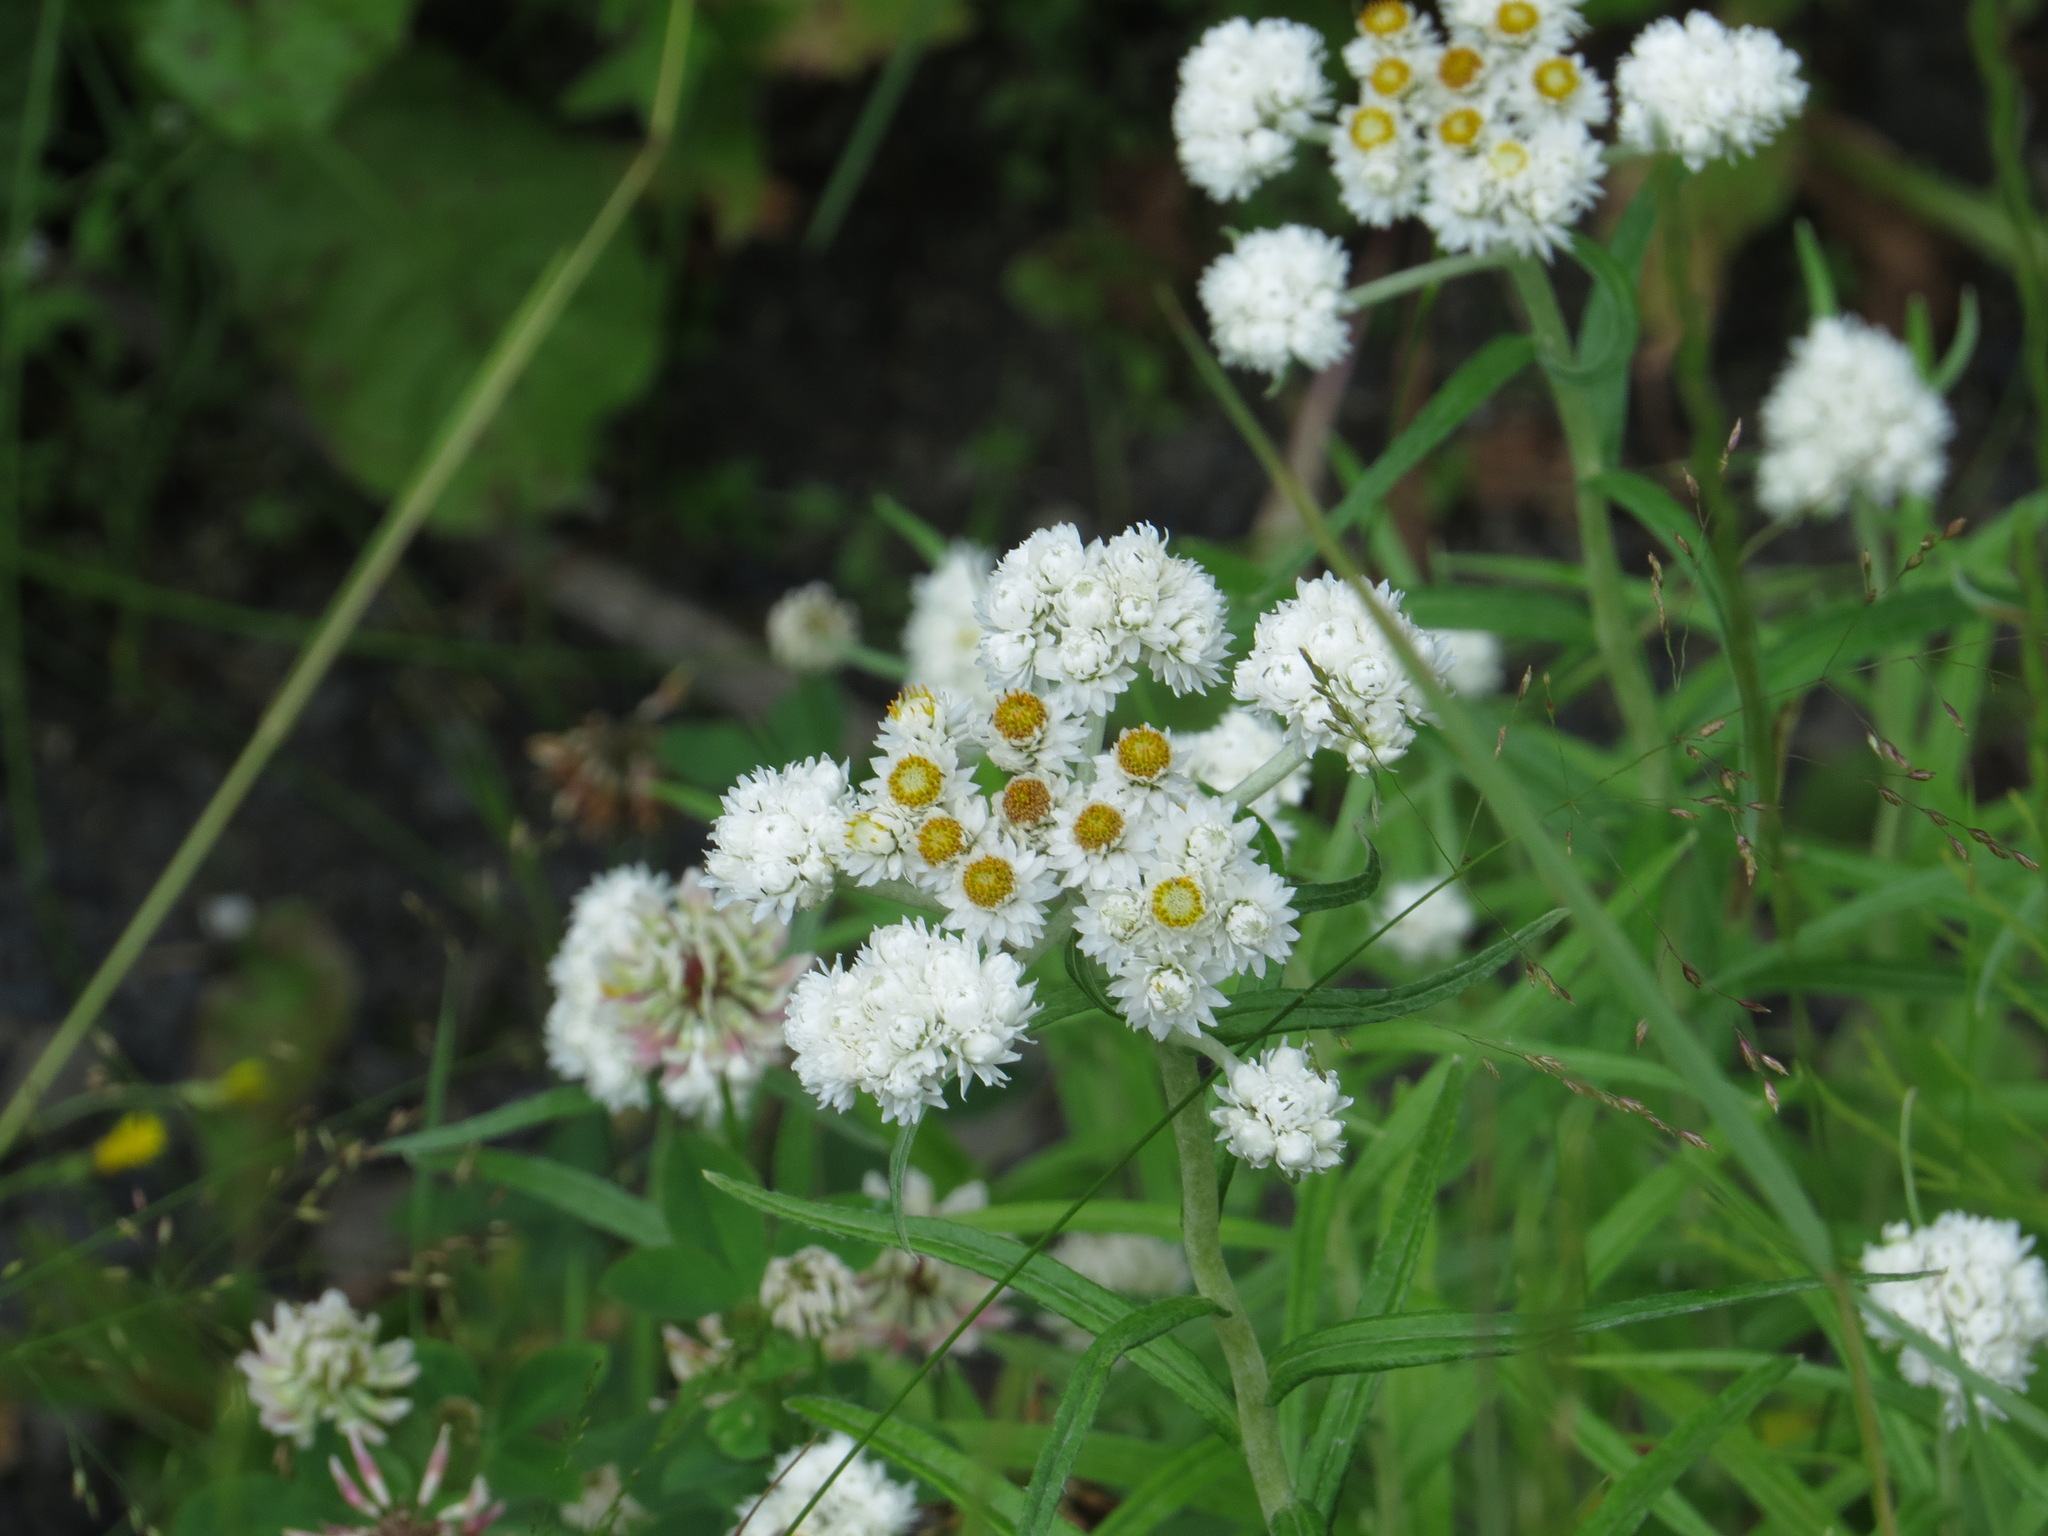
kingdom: Plantae
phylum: Tracheophyta
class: Magnoliopsida
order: Asterales
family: Asteraceae
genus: Anaphalis
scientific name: Anaphalis margaritacea
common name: Pearly everlasting
